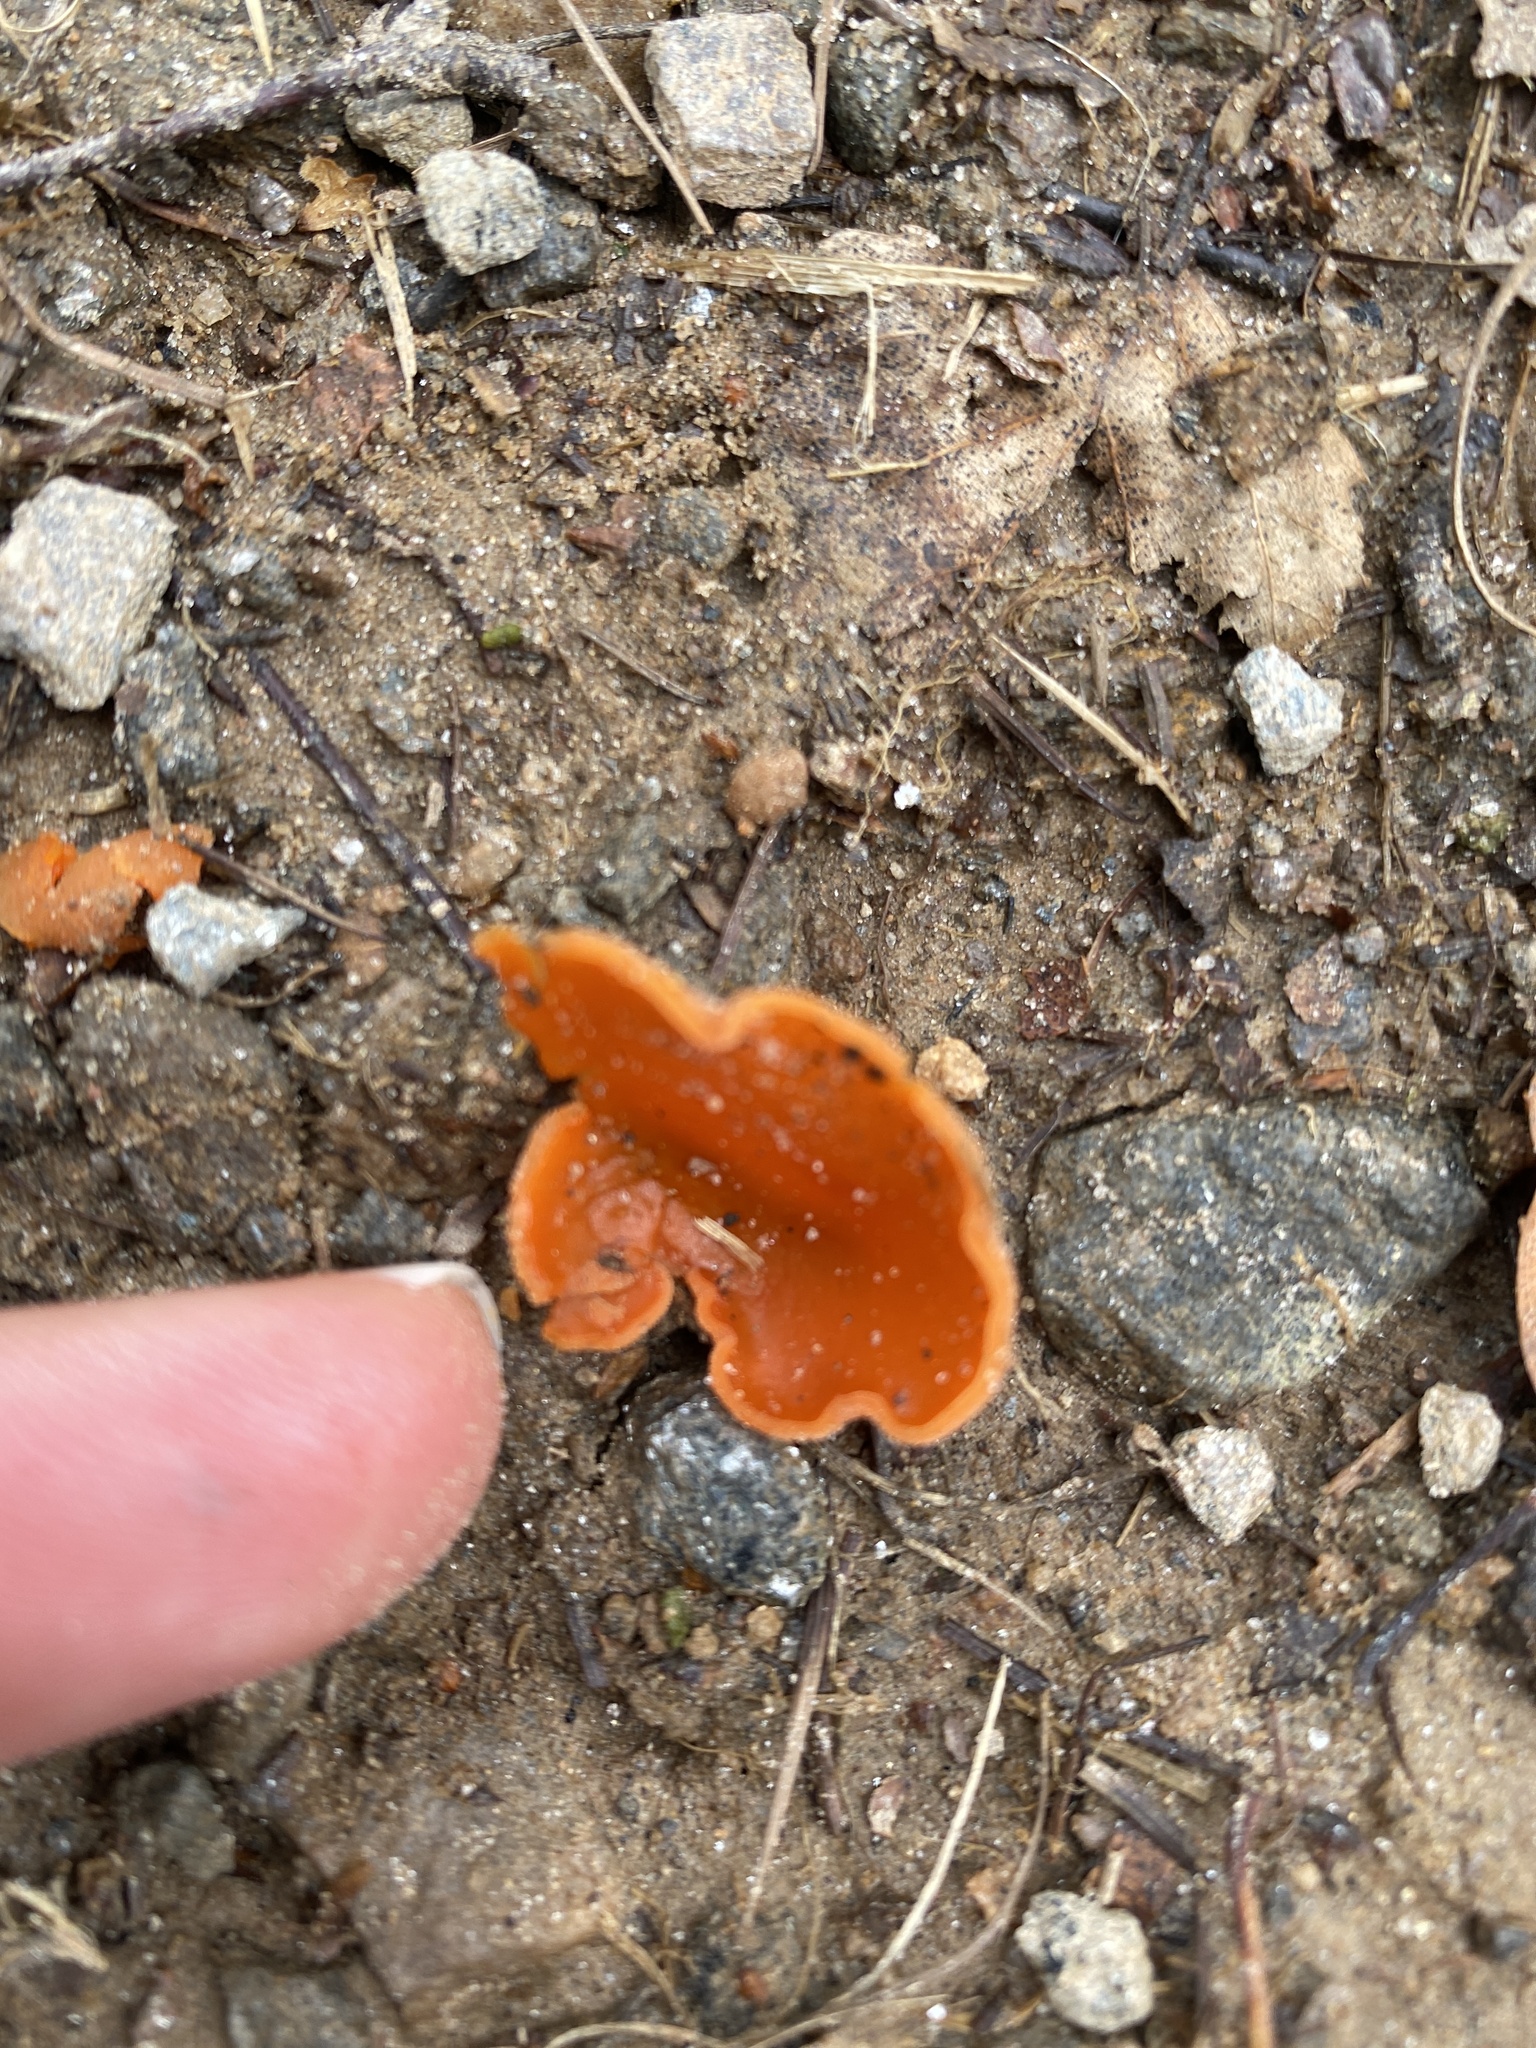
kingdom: Fungi
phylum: Ascomycota
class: Pezizomycetes
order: Pezizales
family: Pyronemataceae
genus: Aleuria
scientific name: Aleuria aurantia
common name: Orange peel fungus
